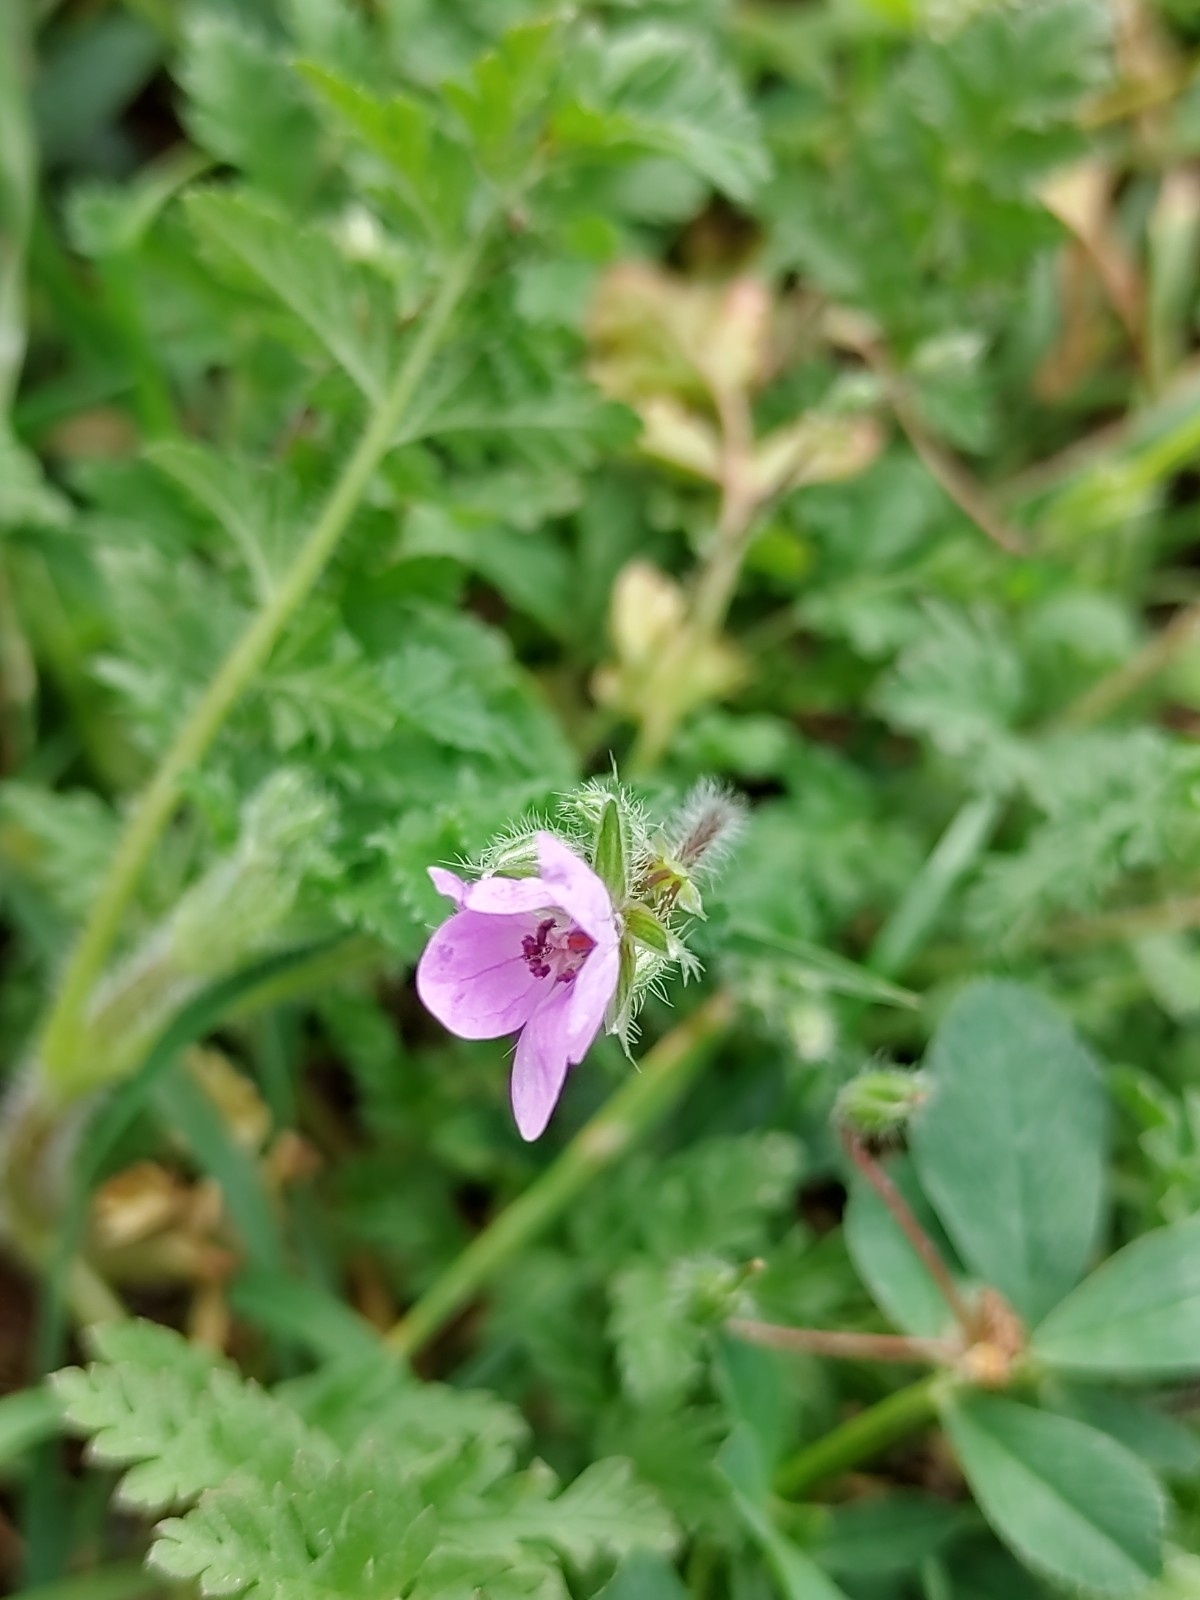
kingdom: Plantae
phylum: Tracheophyta
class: Magnoliopsida
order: Geraniales
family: Geraniaceae
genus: Erodium
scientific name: Erodium cicutarium
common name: Common stork's-bill
